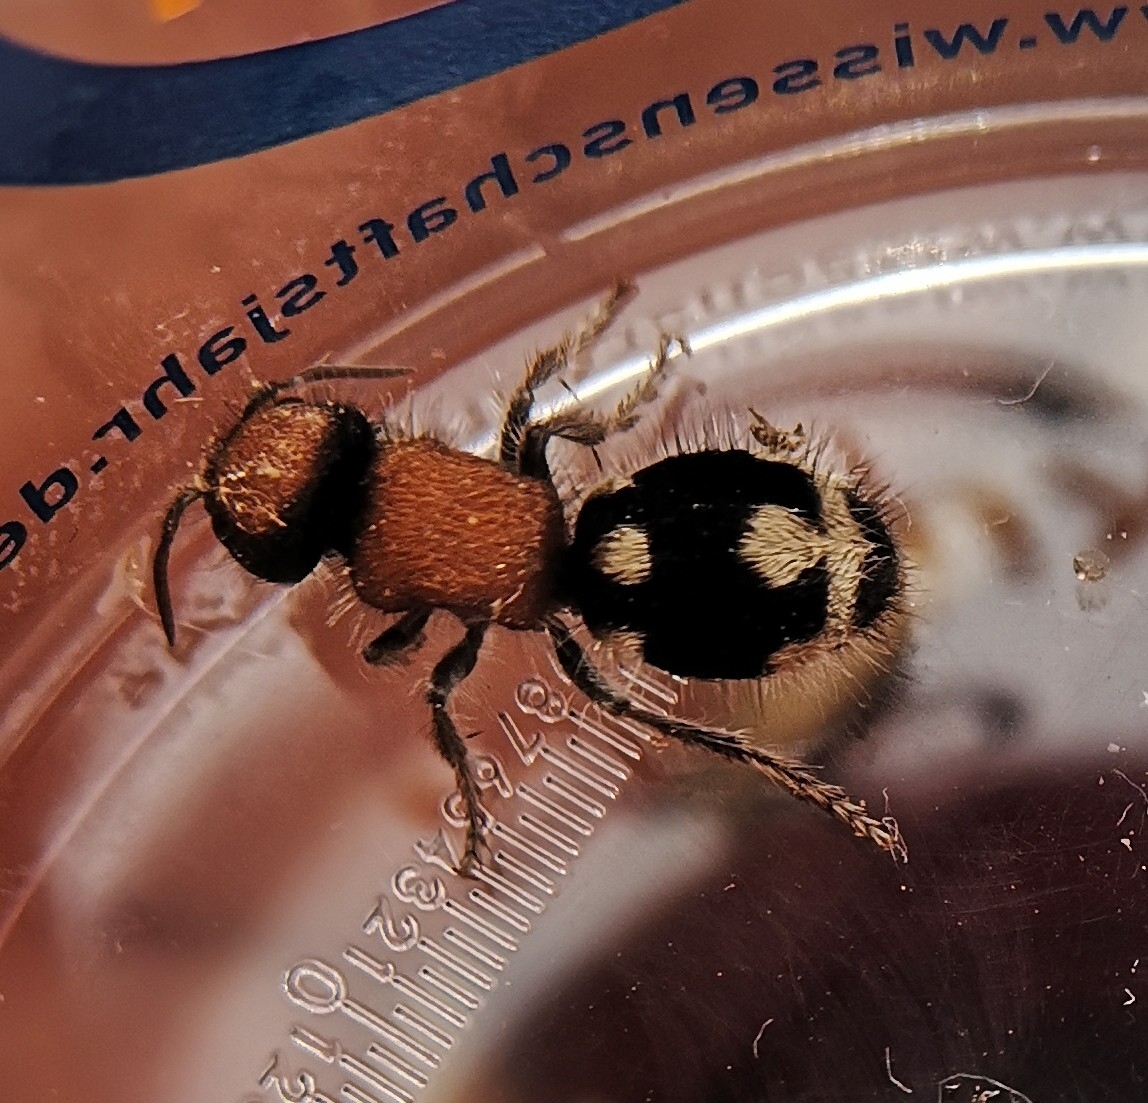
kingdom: Animalia
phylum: Arthropoda
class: Insecta
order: Hymenoptera
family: Mutillidae
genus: Ronisia
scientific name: Ronisia brutia
